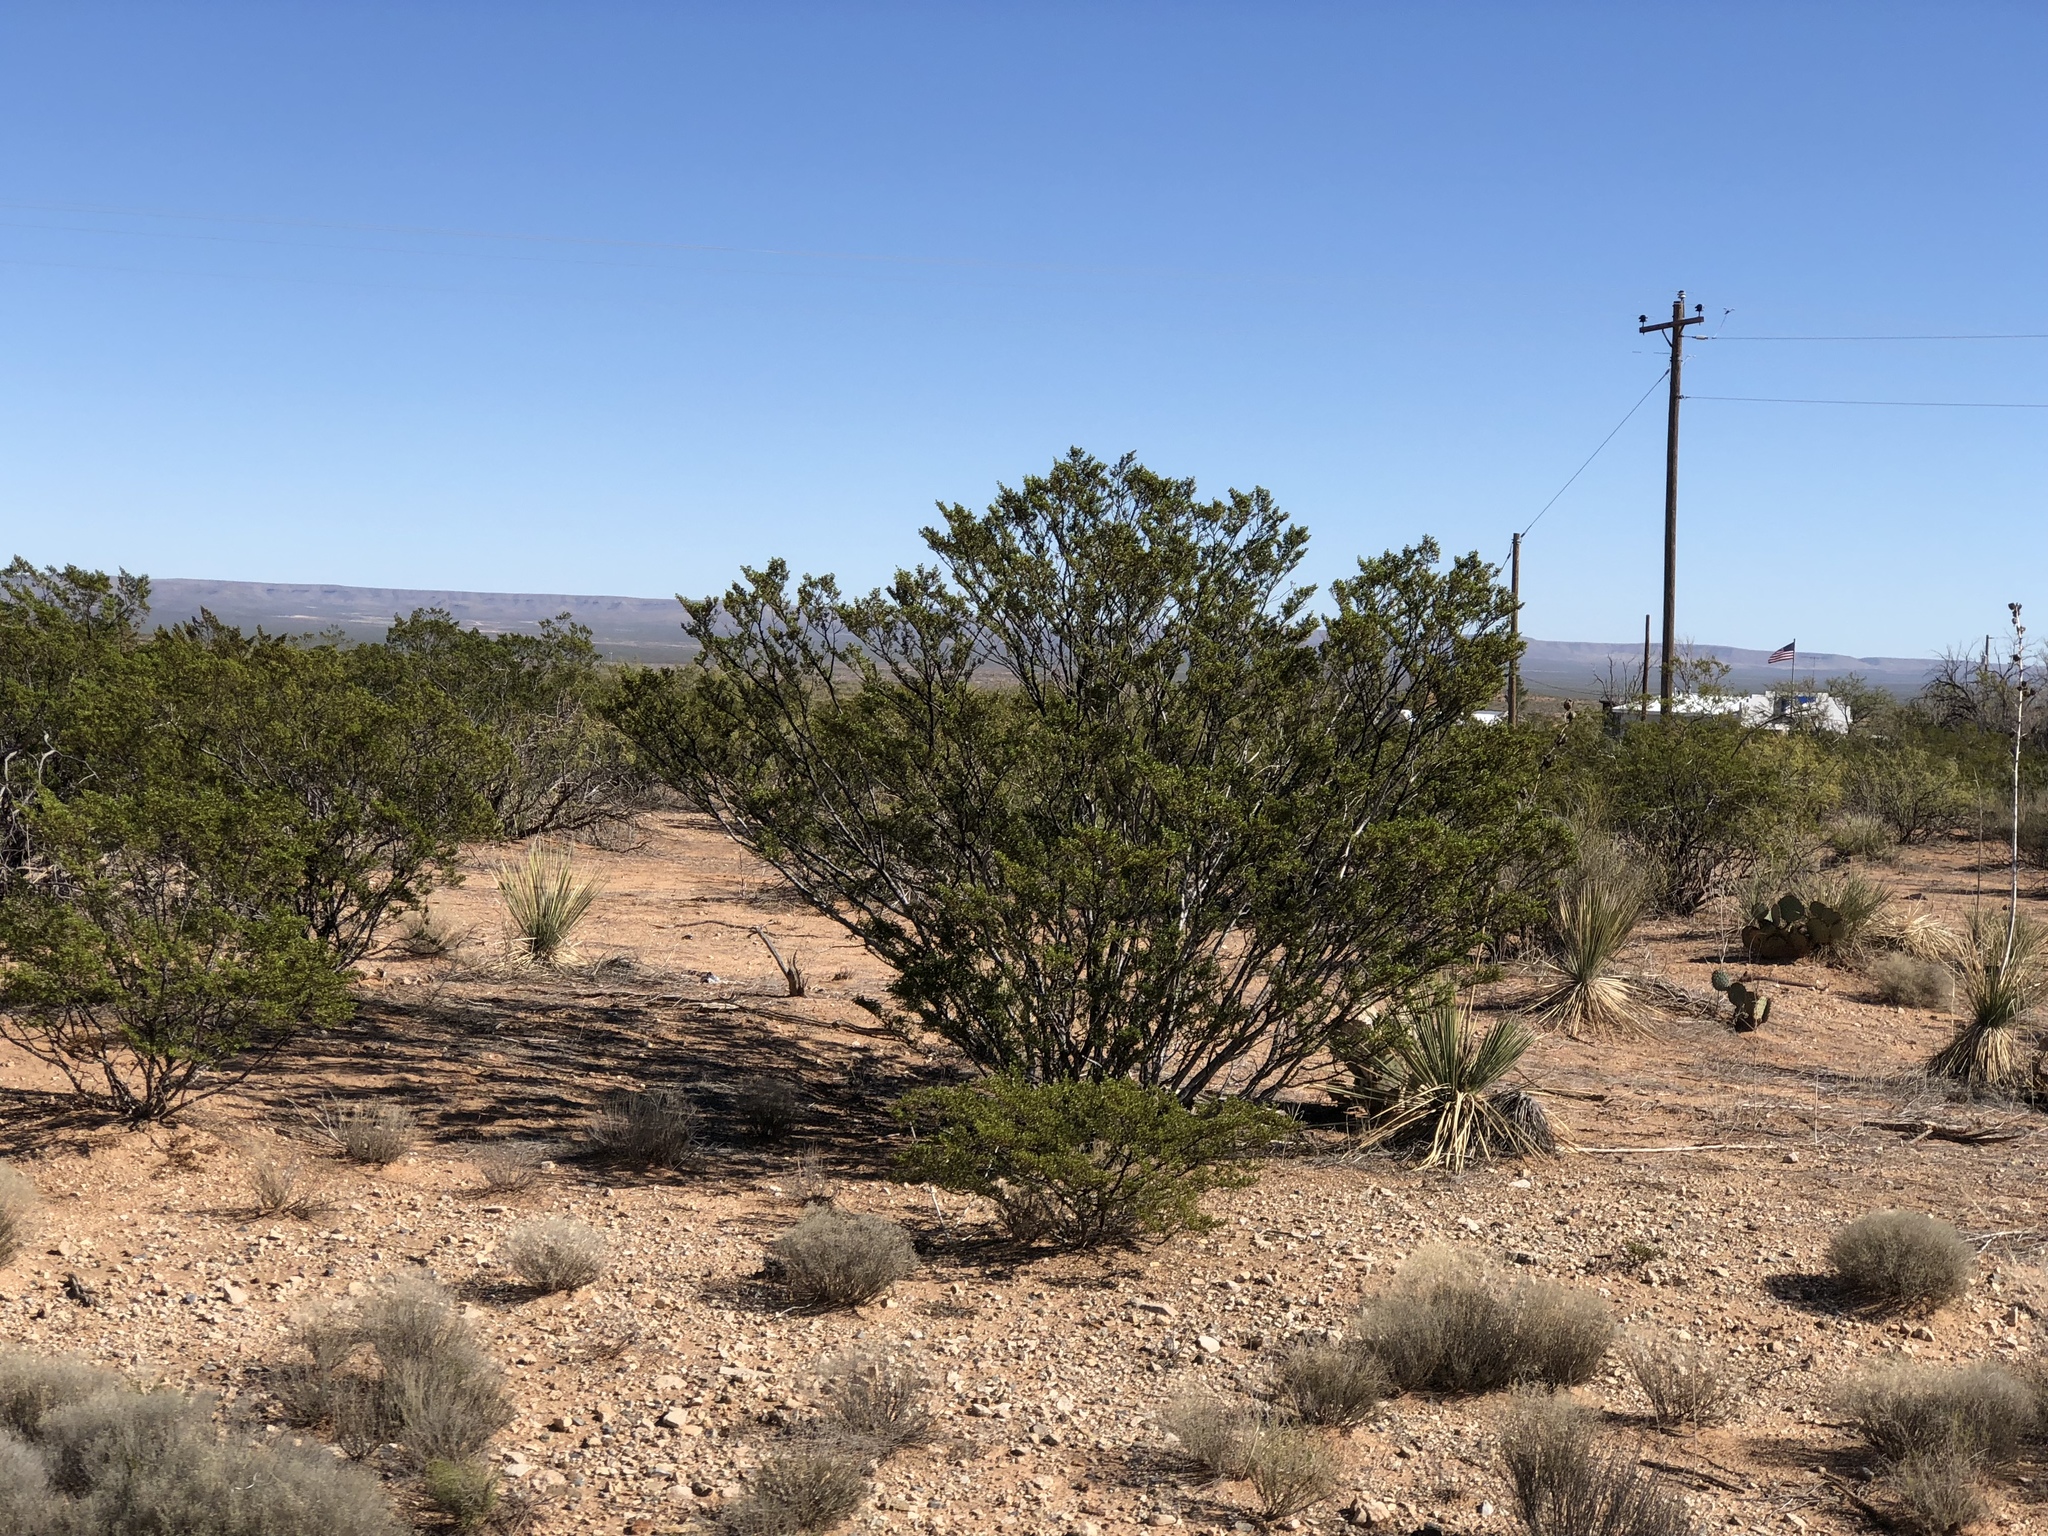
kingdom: Plantae
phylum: Tracheophyta
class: Magnoliopsida
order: Zygophyllales
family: Zygophyllaceae
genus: Larrea
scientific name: Larrea tridentata
